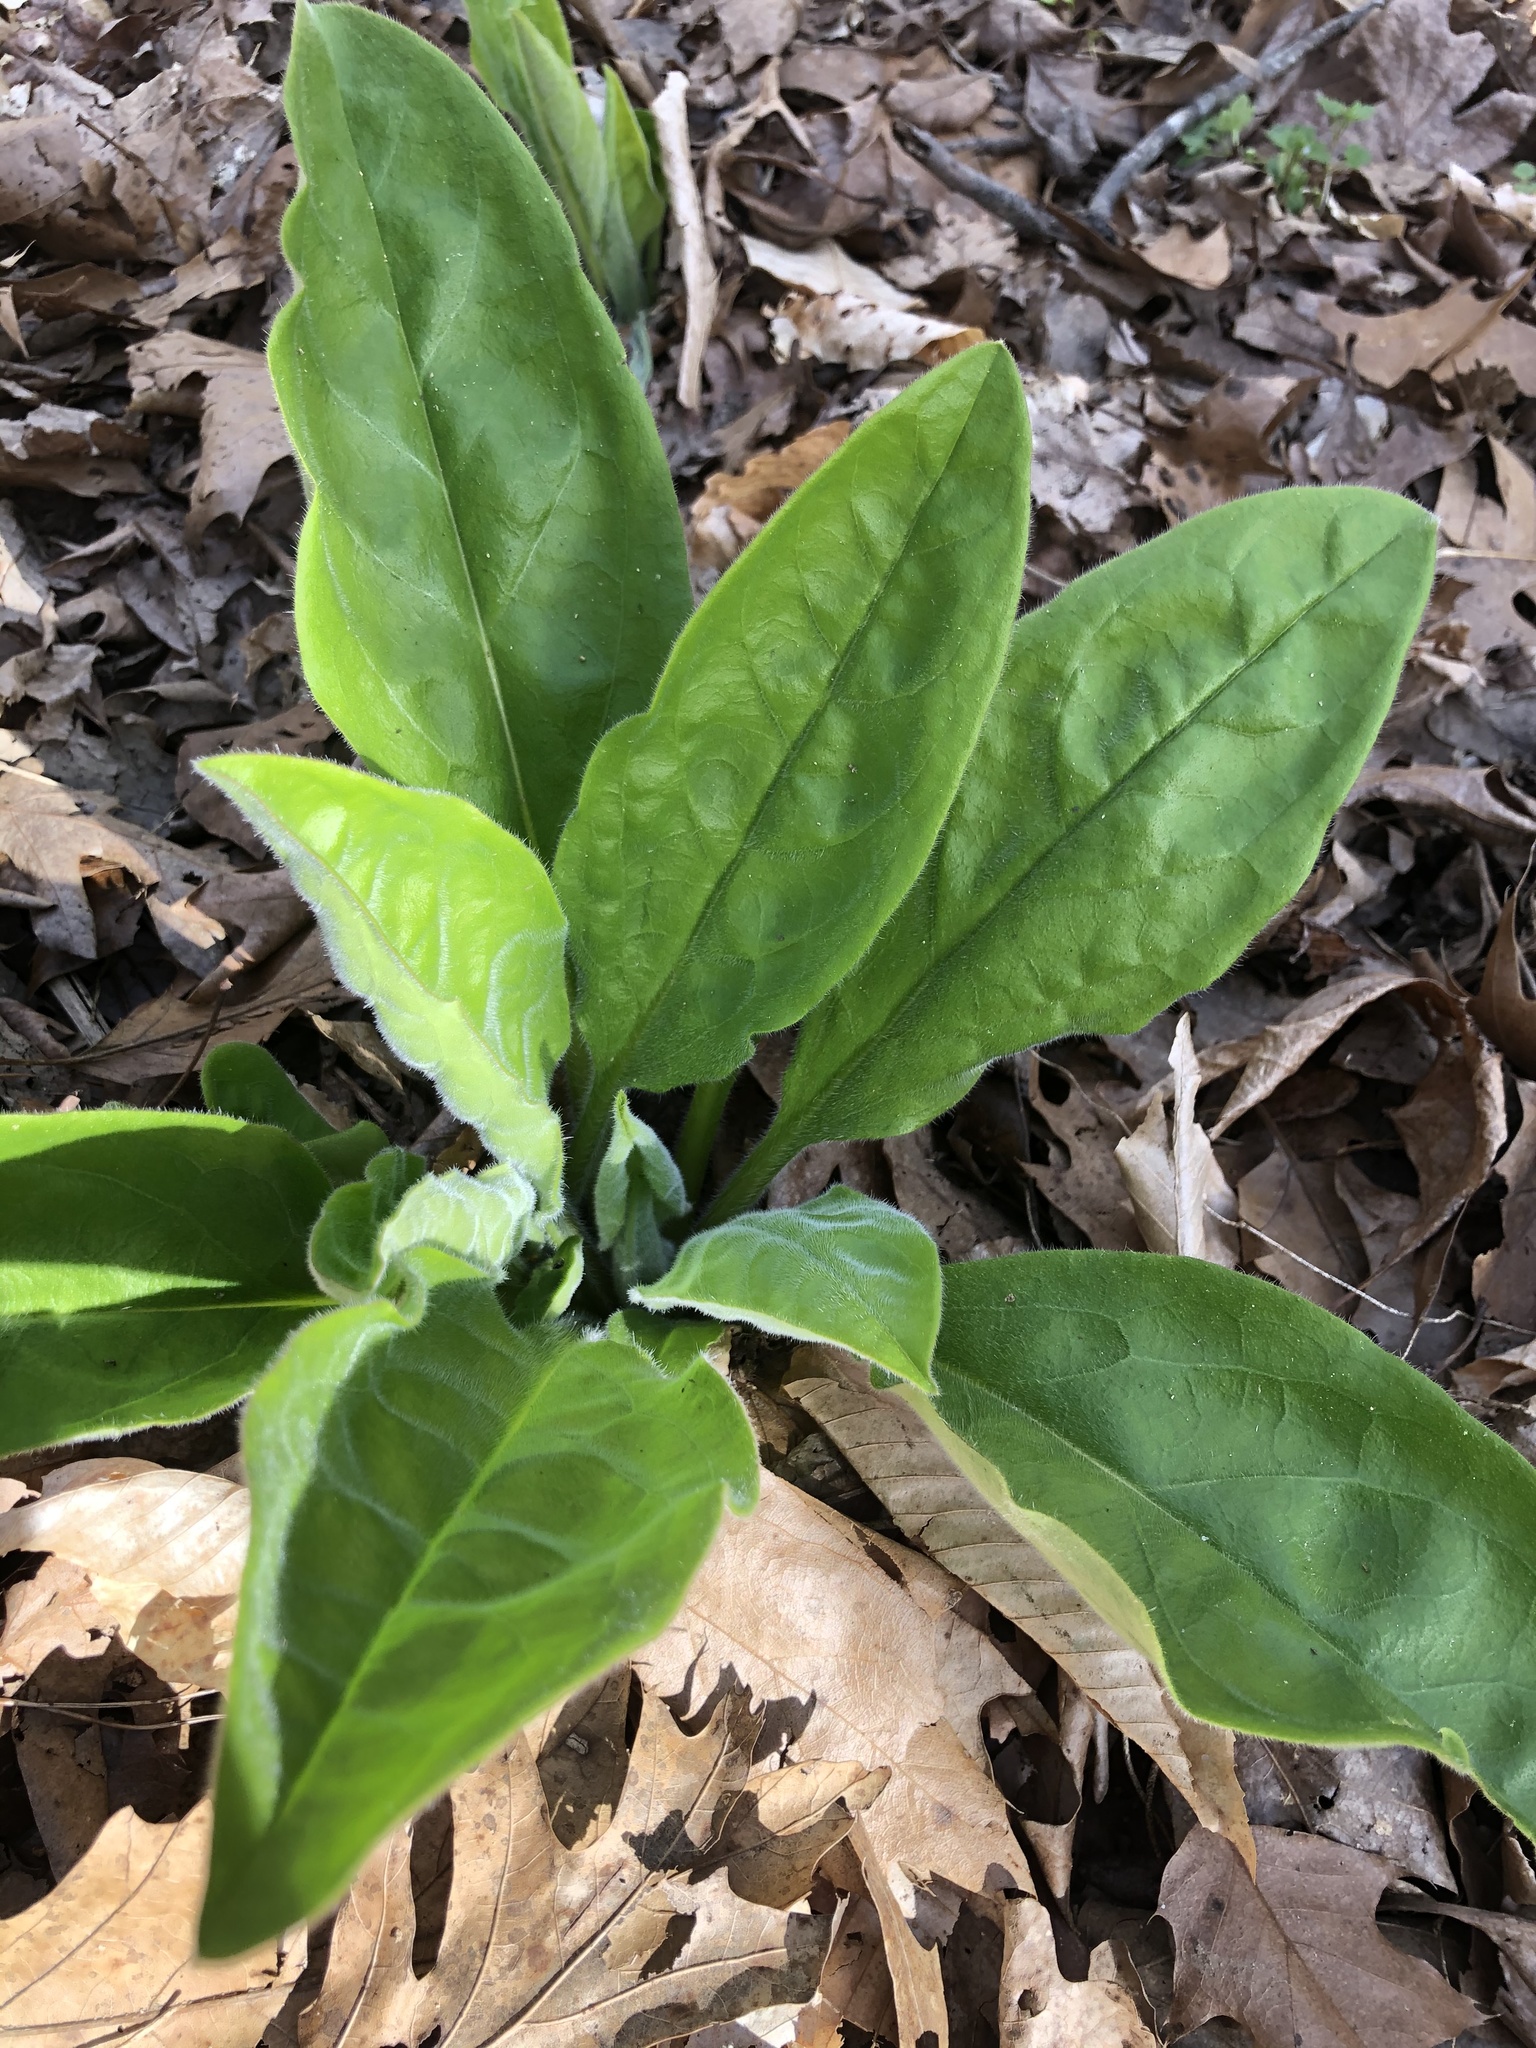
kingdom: Plantae
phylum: Tracheophyta
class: Magnoliopsida
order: Boraginales
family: Boraginaceae
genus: Andersonglossum
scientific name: Andersonglossum virginianum
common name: Wild comfrey
